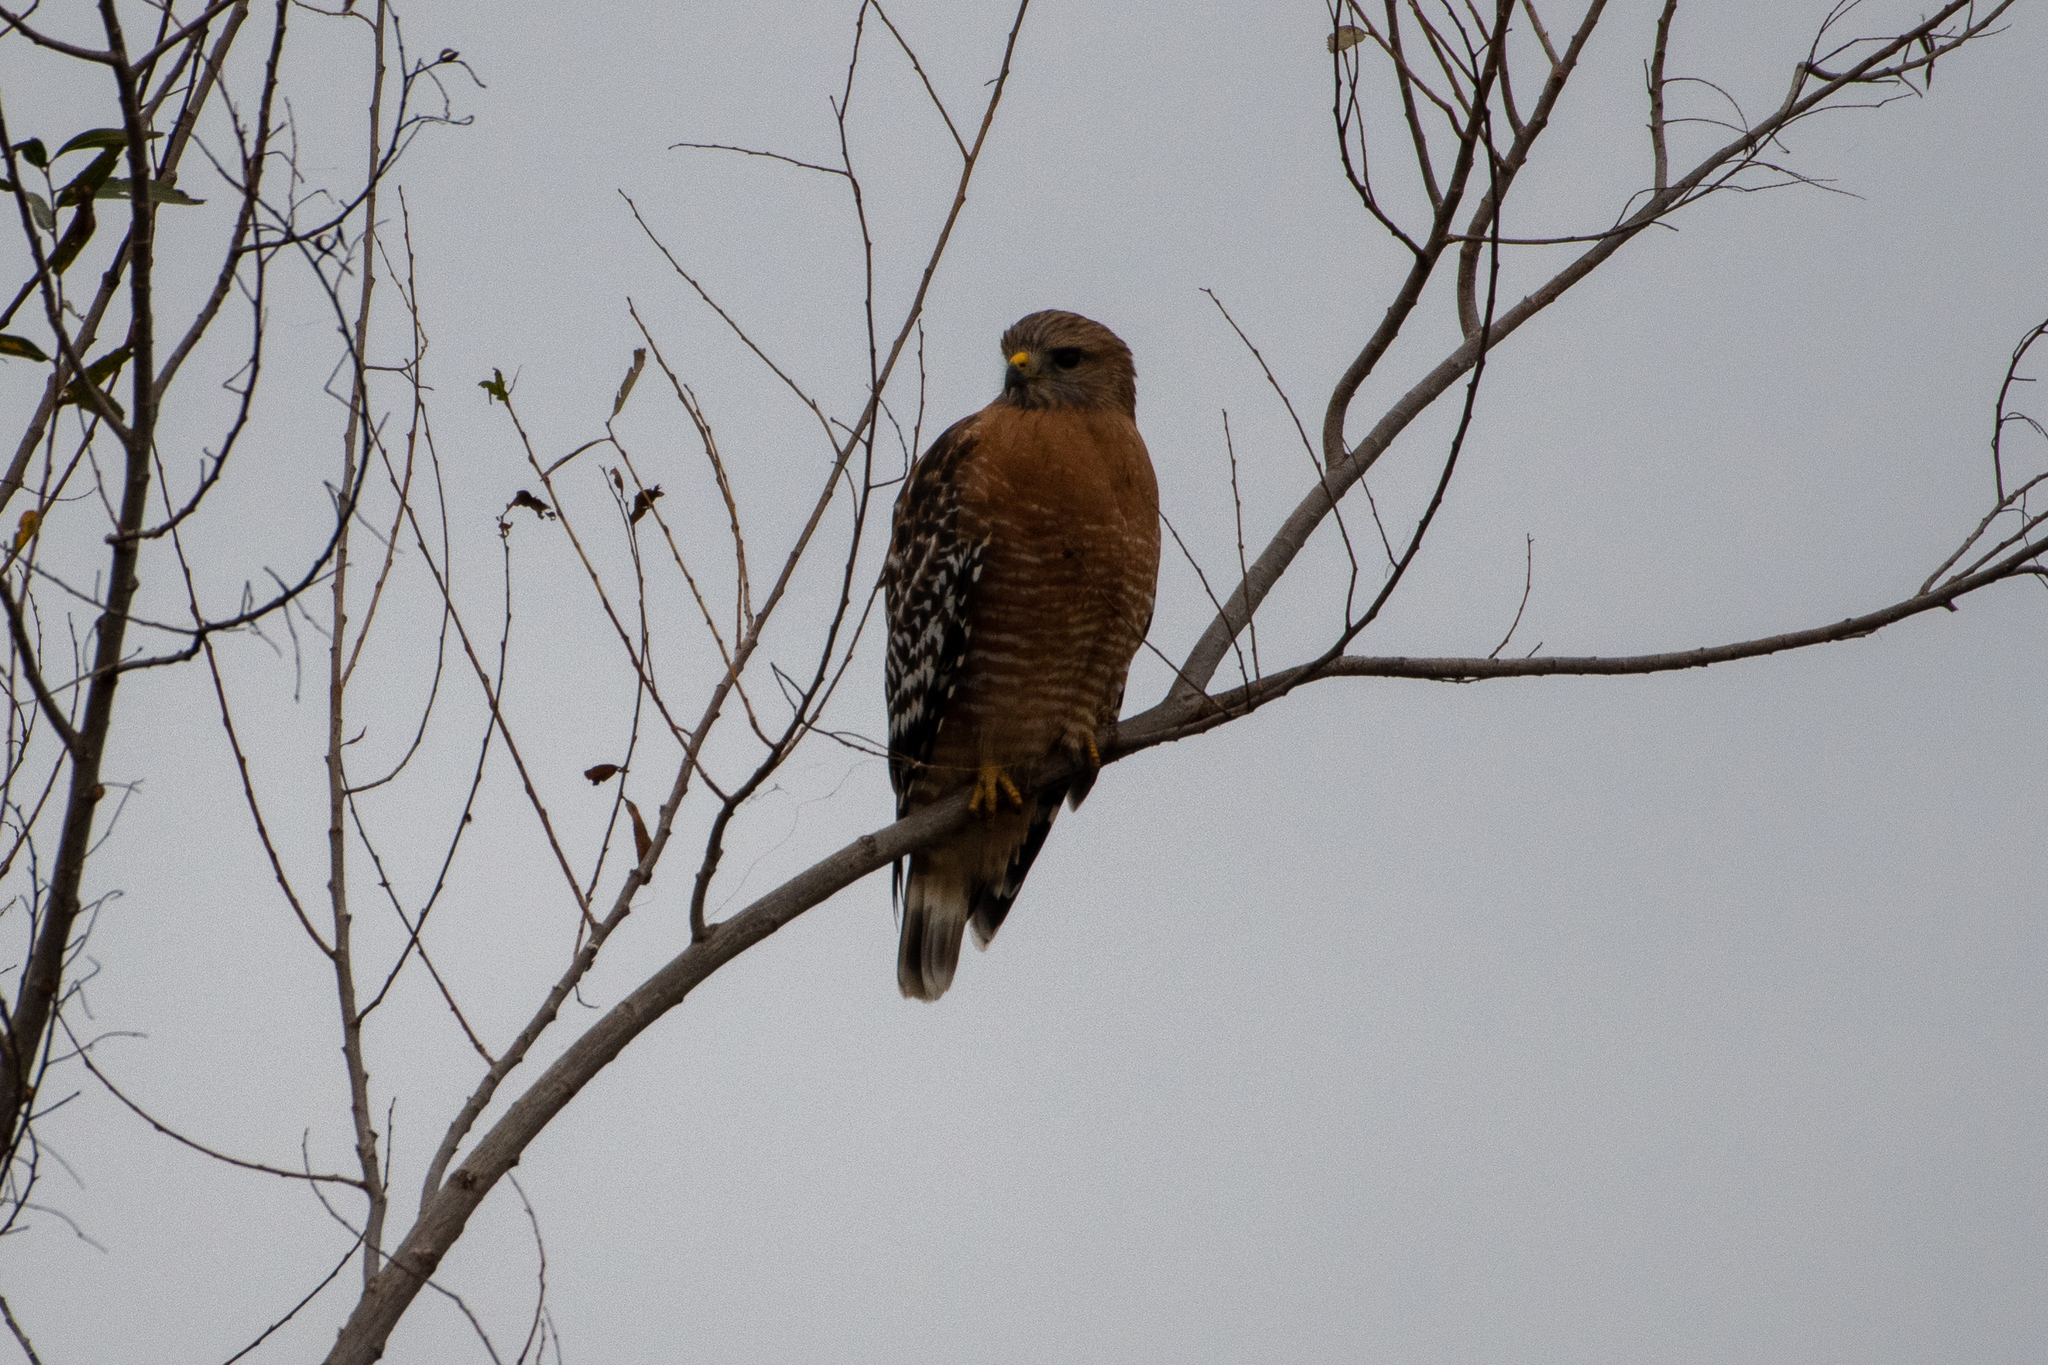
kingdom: Animalia
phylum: Chordata
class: Aves
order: Accipitriformes
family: Accipitridae
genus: Buteo
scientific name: Buteo lineatus
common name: Red-shouldered hawk
